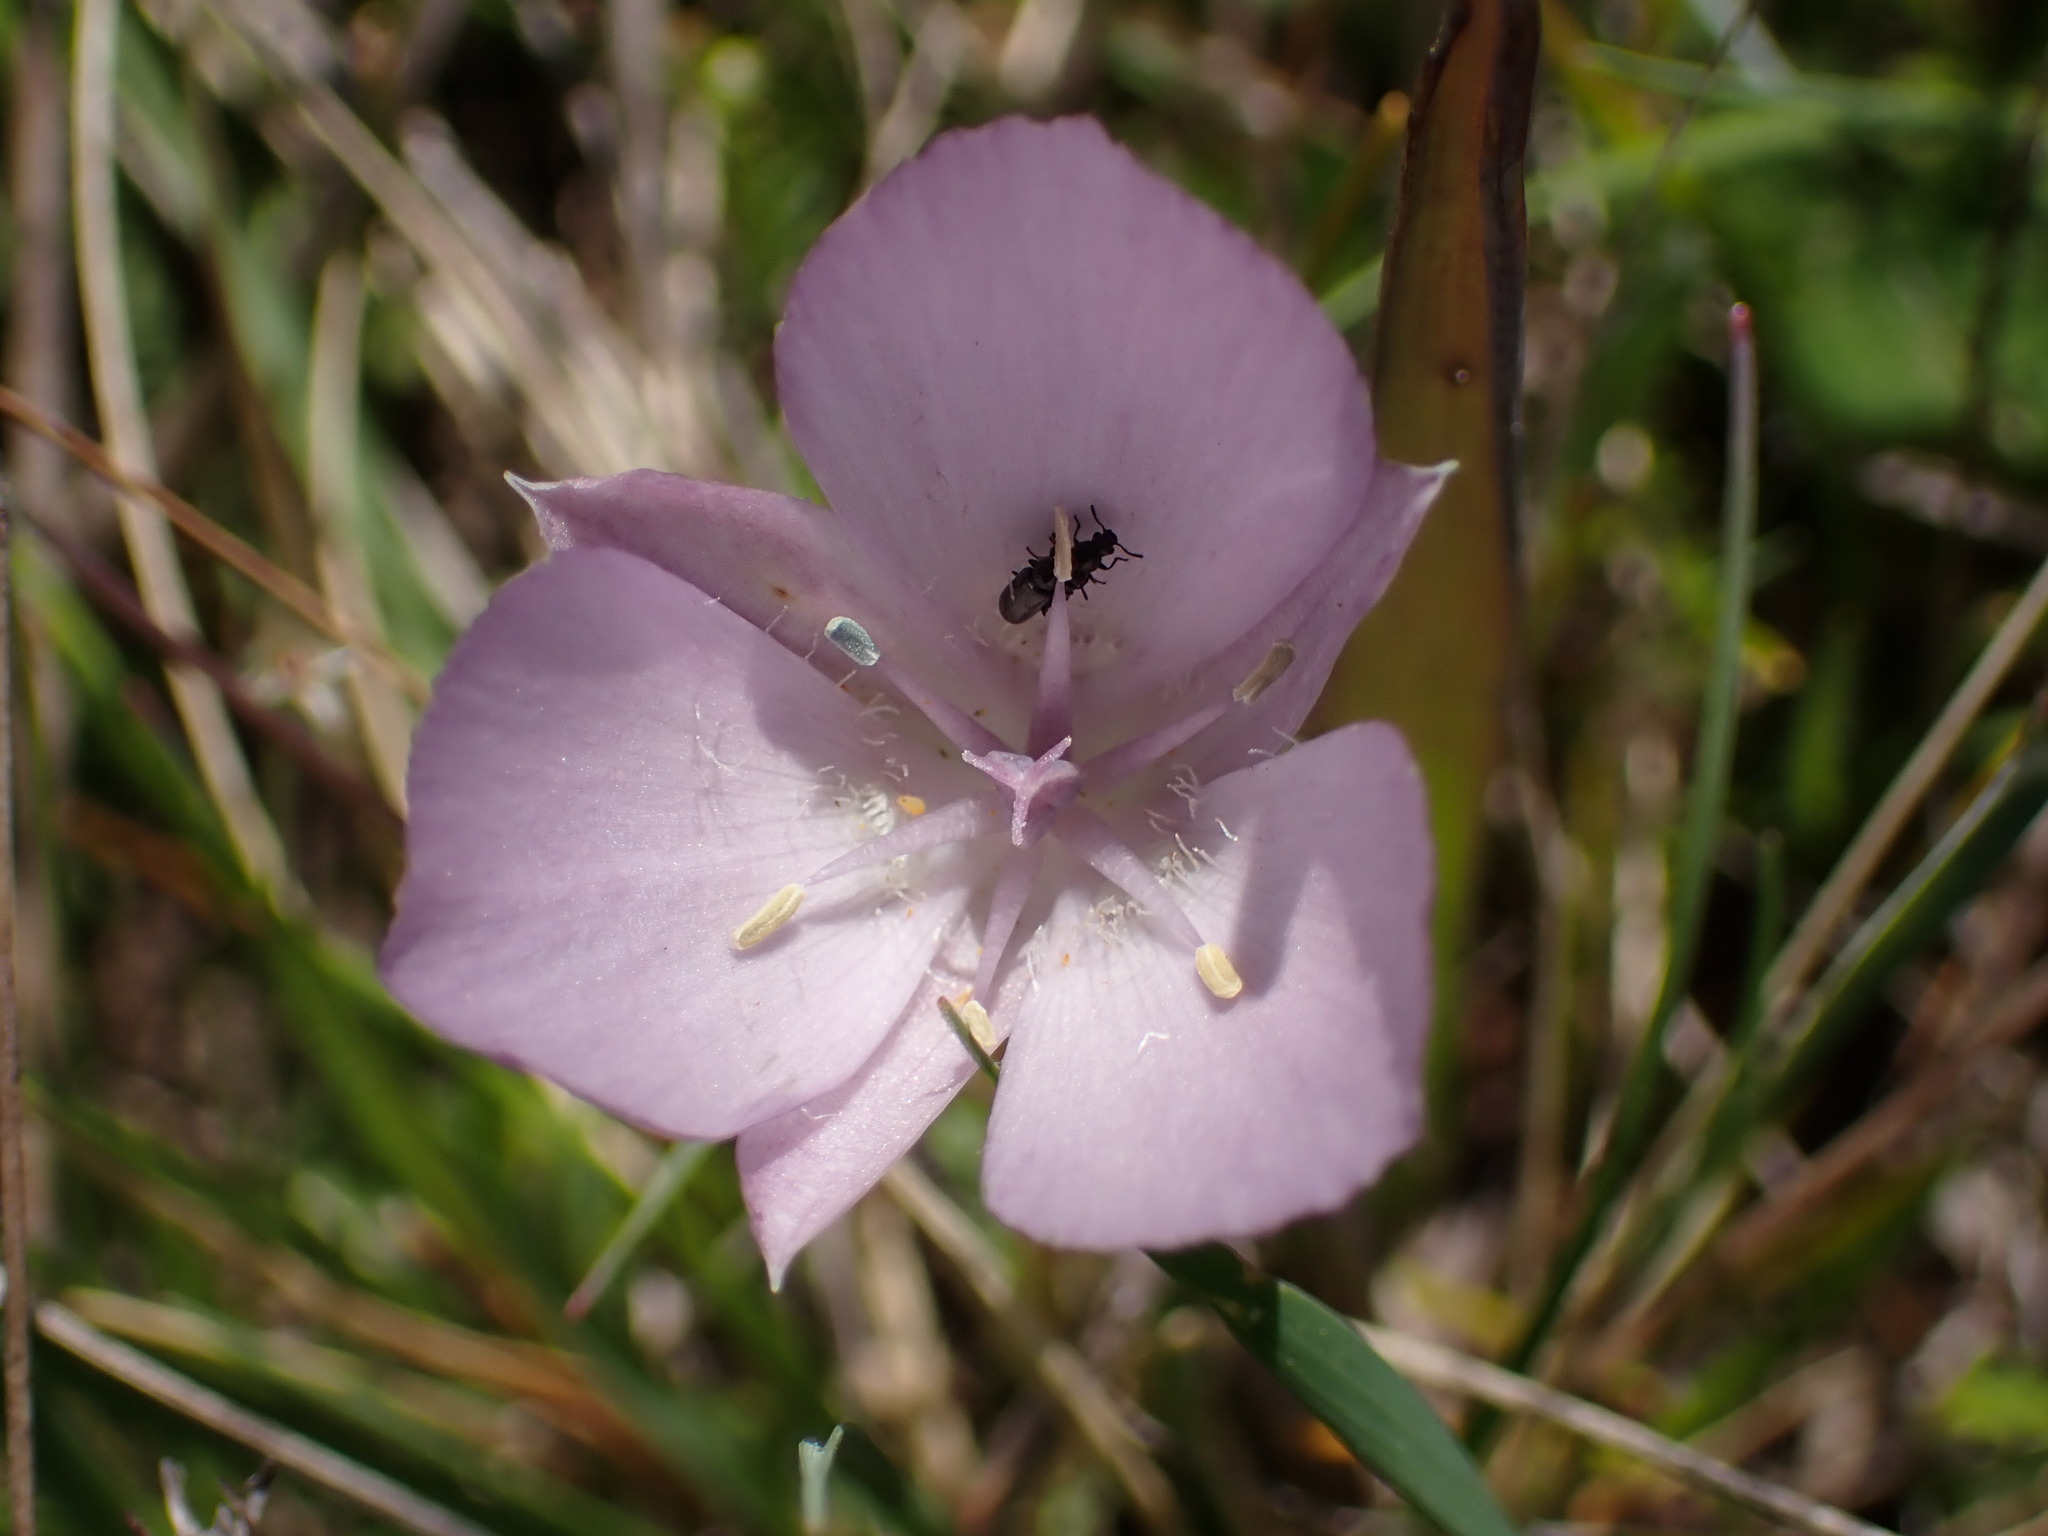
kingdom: Plantae
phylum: Tracheophyta
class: Liliopsida
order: Liliales
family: Liliaceae
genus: Calochortus
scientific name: Calochortus uniflorus
